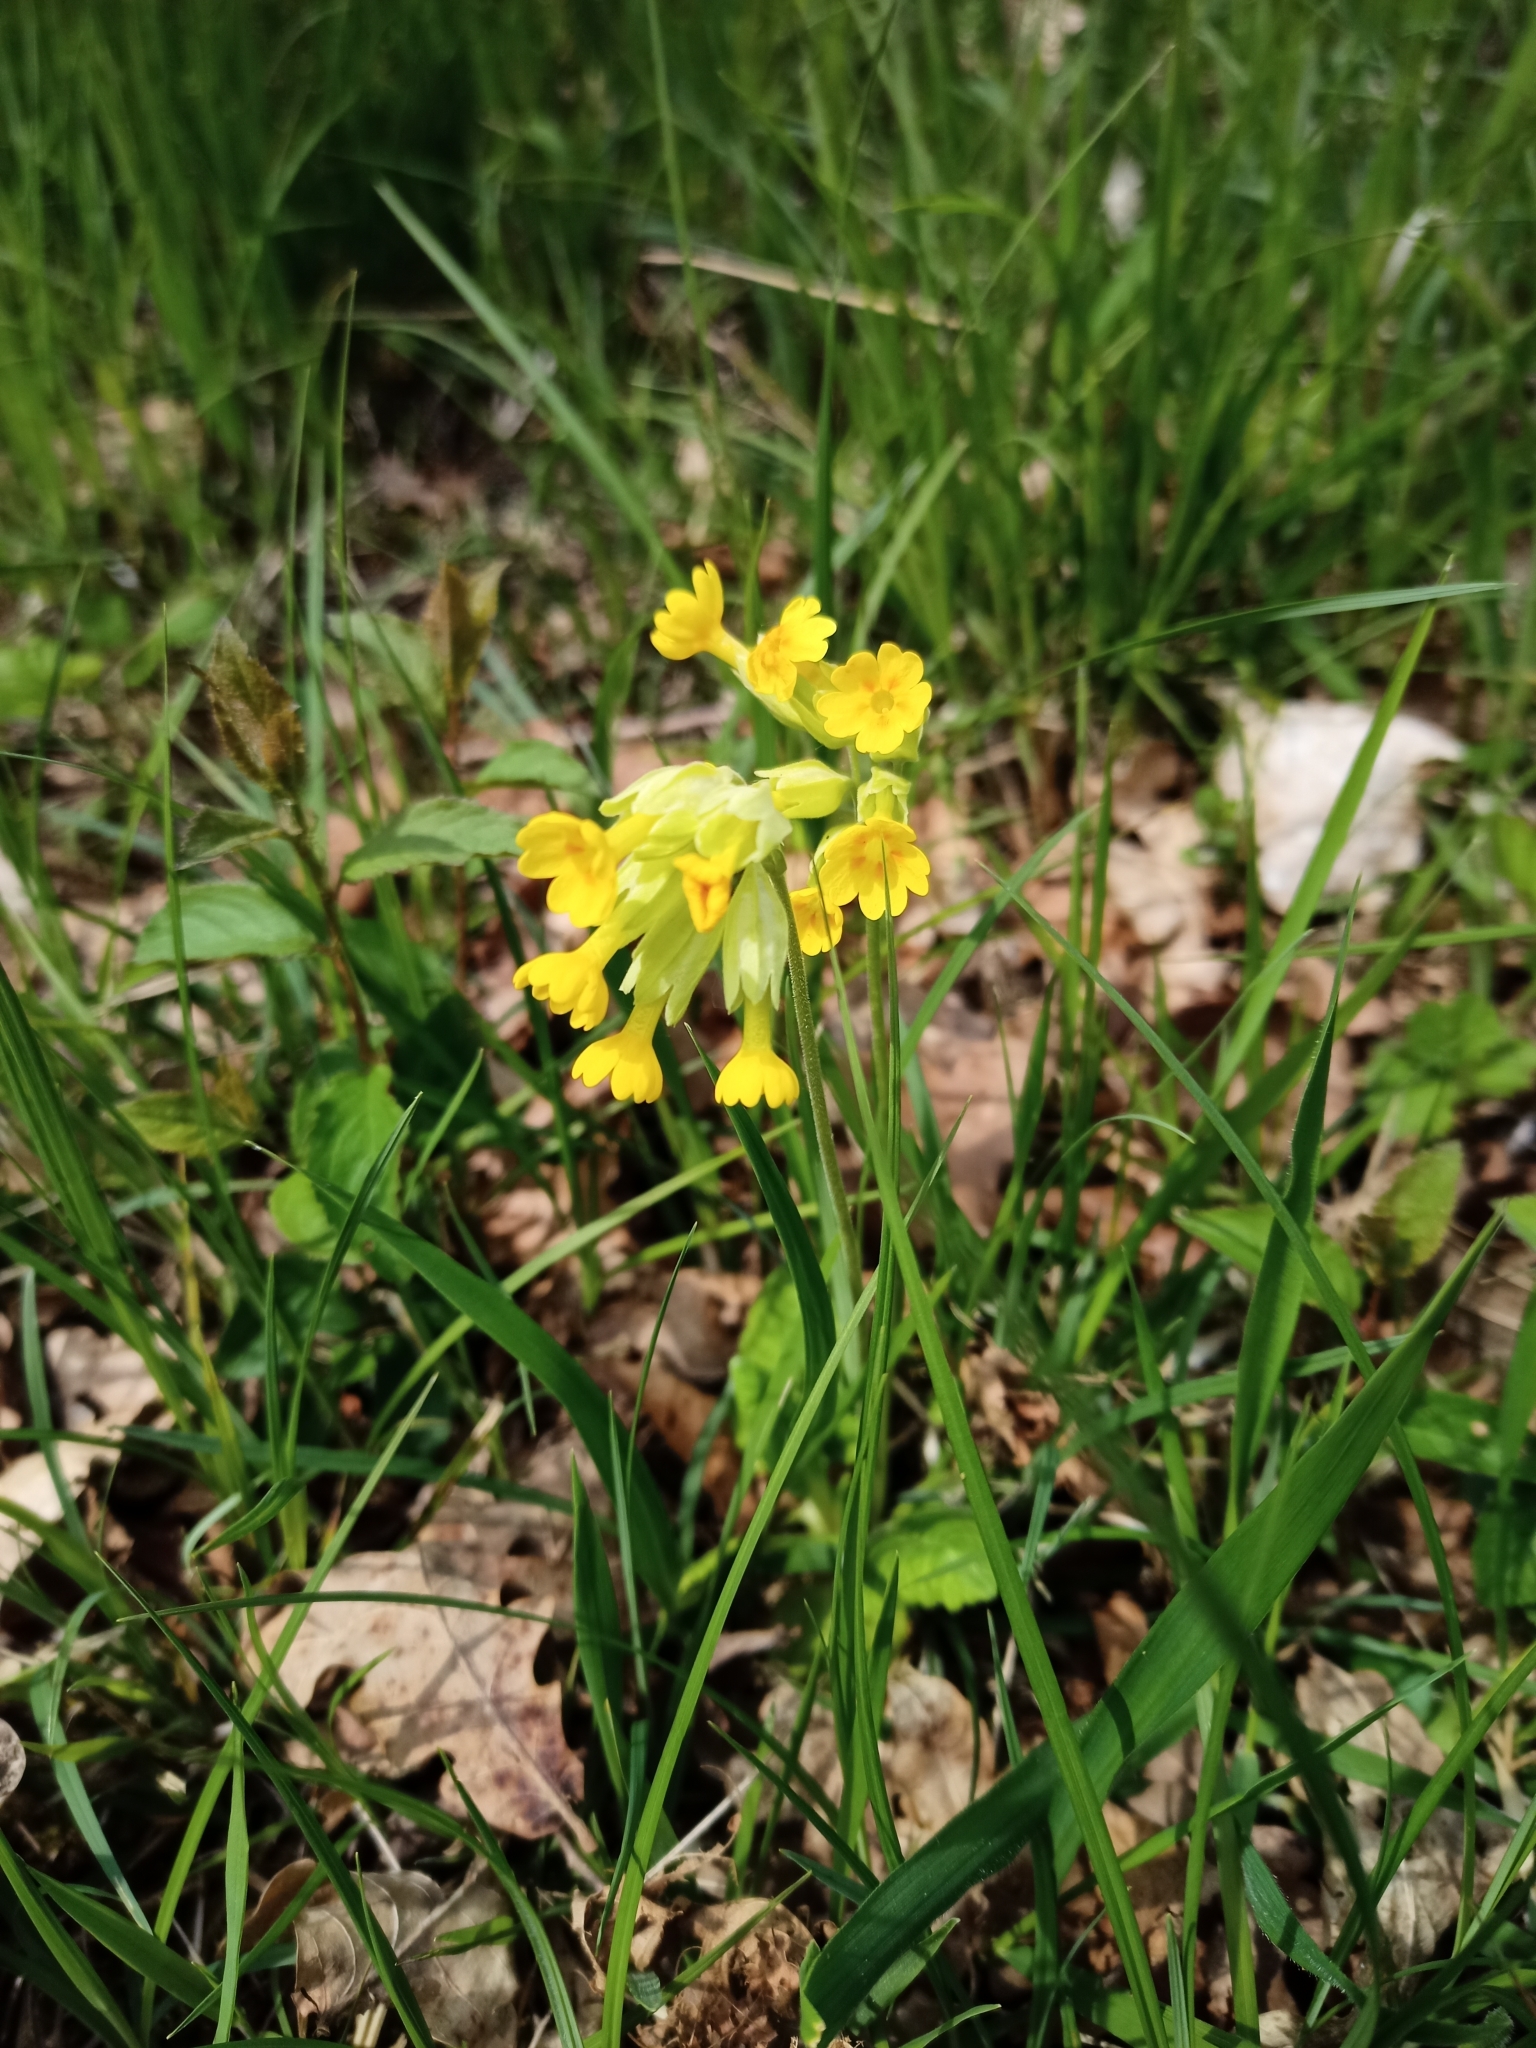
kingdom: Plantae
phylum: Tracheophyta
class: Magnoliopsida
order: Ericales
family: Primulaceae
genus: Primula
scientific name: Primula veris
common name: Cowslip
